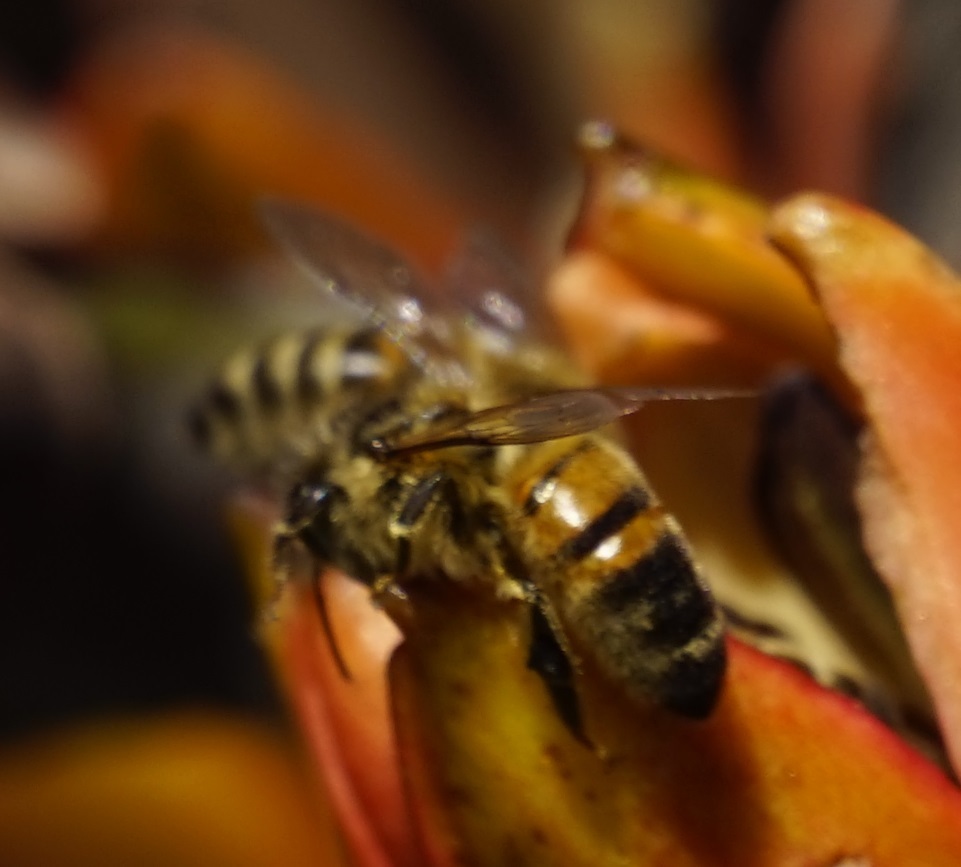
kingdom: Animalia
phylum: Arthropoda
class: Insecta
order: Hymenoptera
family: Apidae
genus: Apis
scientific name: Apis mellifera
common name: Honey bee
